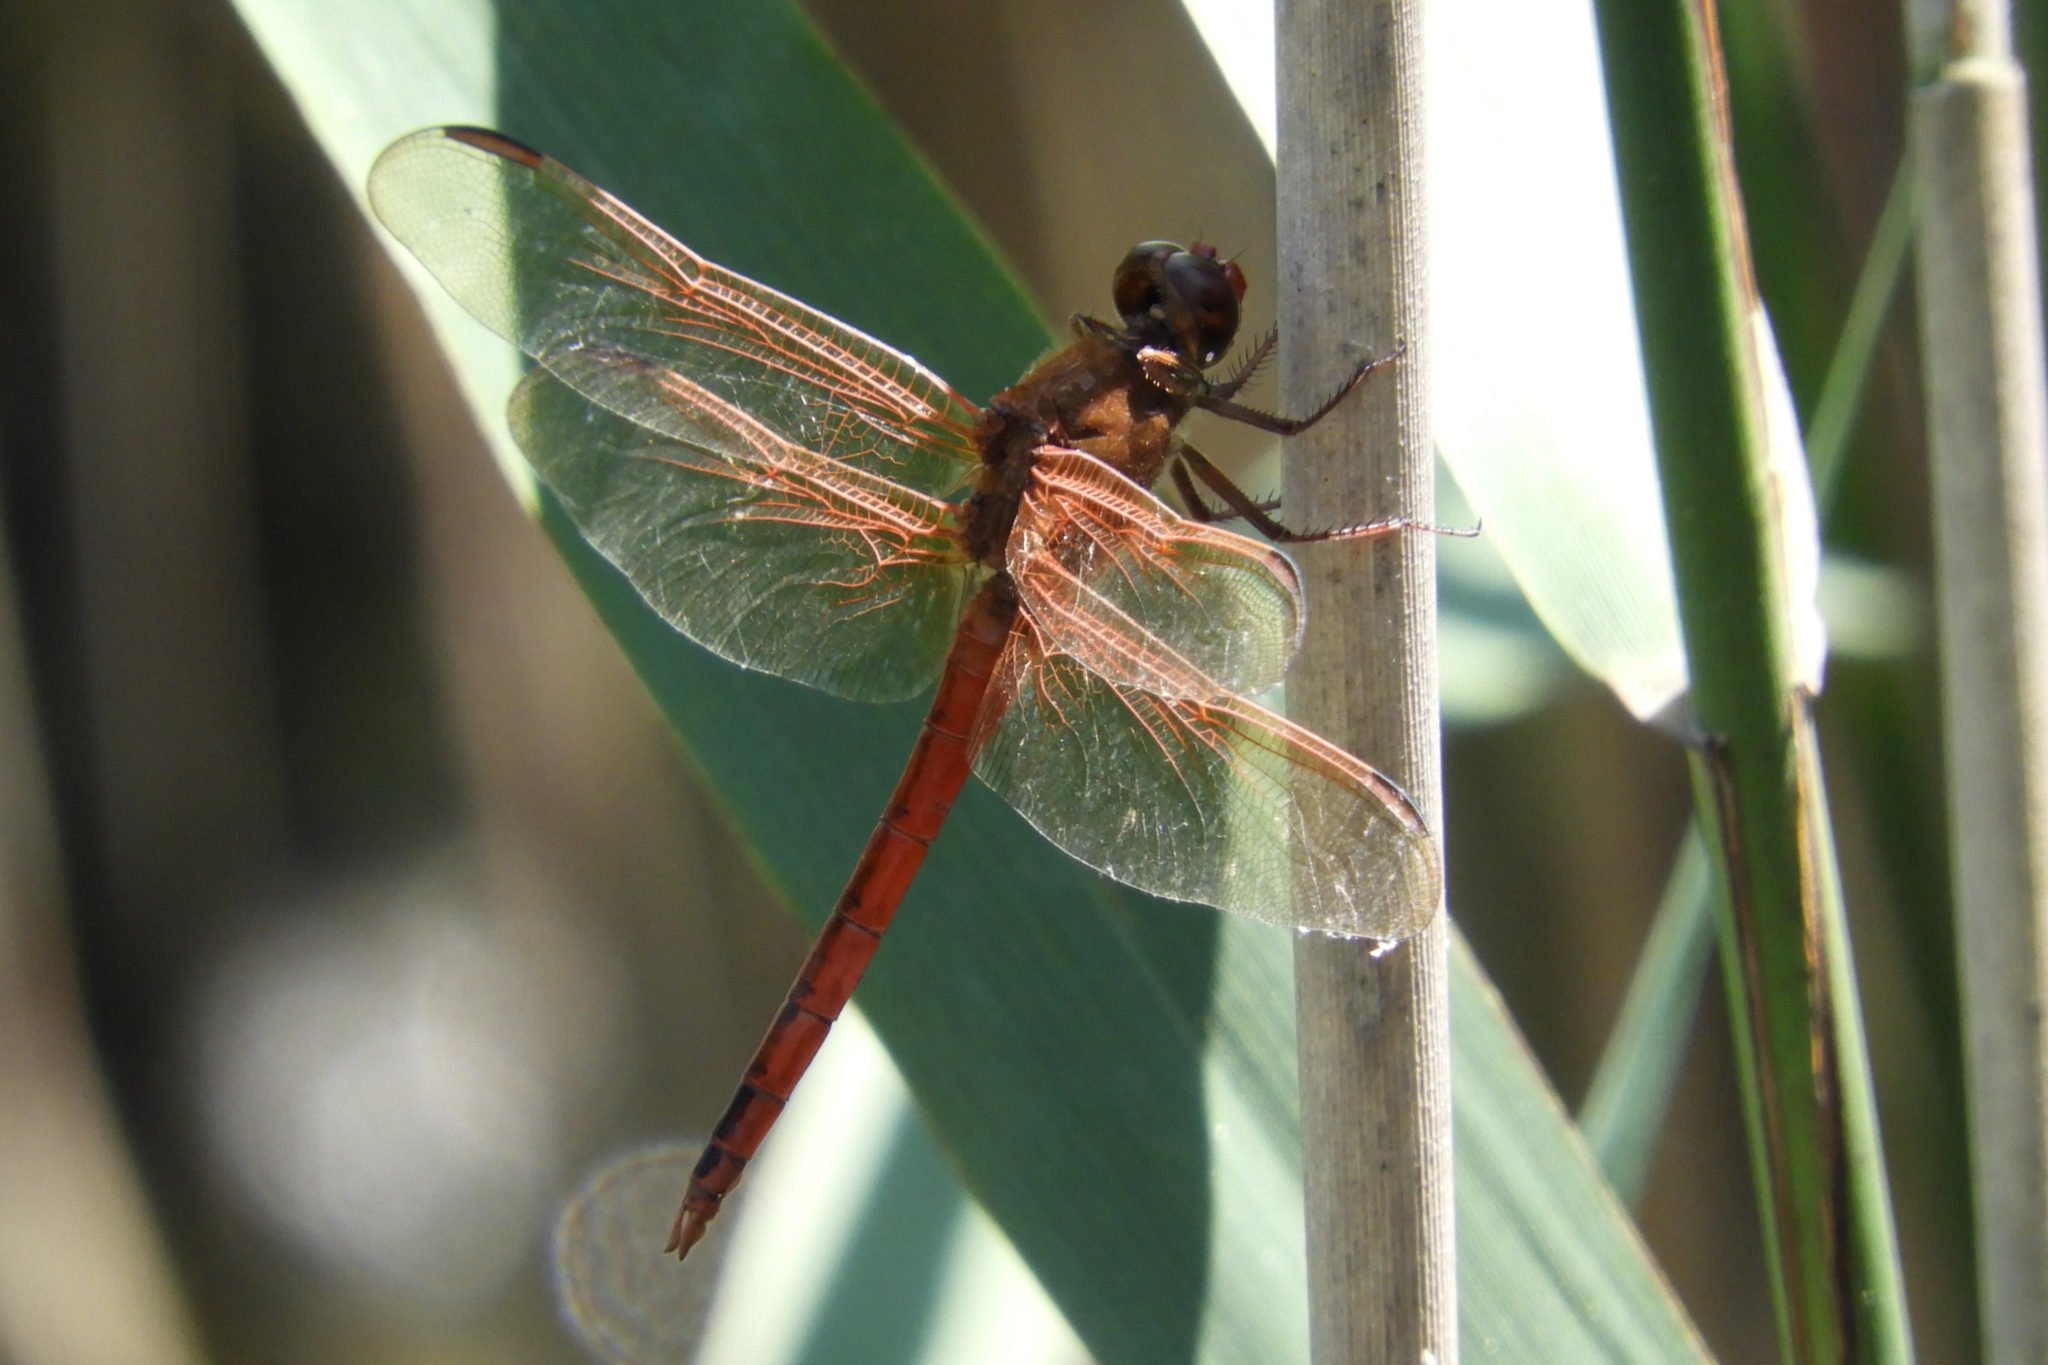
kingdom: Animalia
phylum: Arthropoda
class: Insecta
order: Odonata
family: Libellulidae
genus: Libellula
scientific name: Libellula needhami
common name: Needham's skimmer
